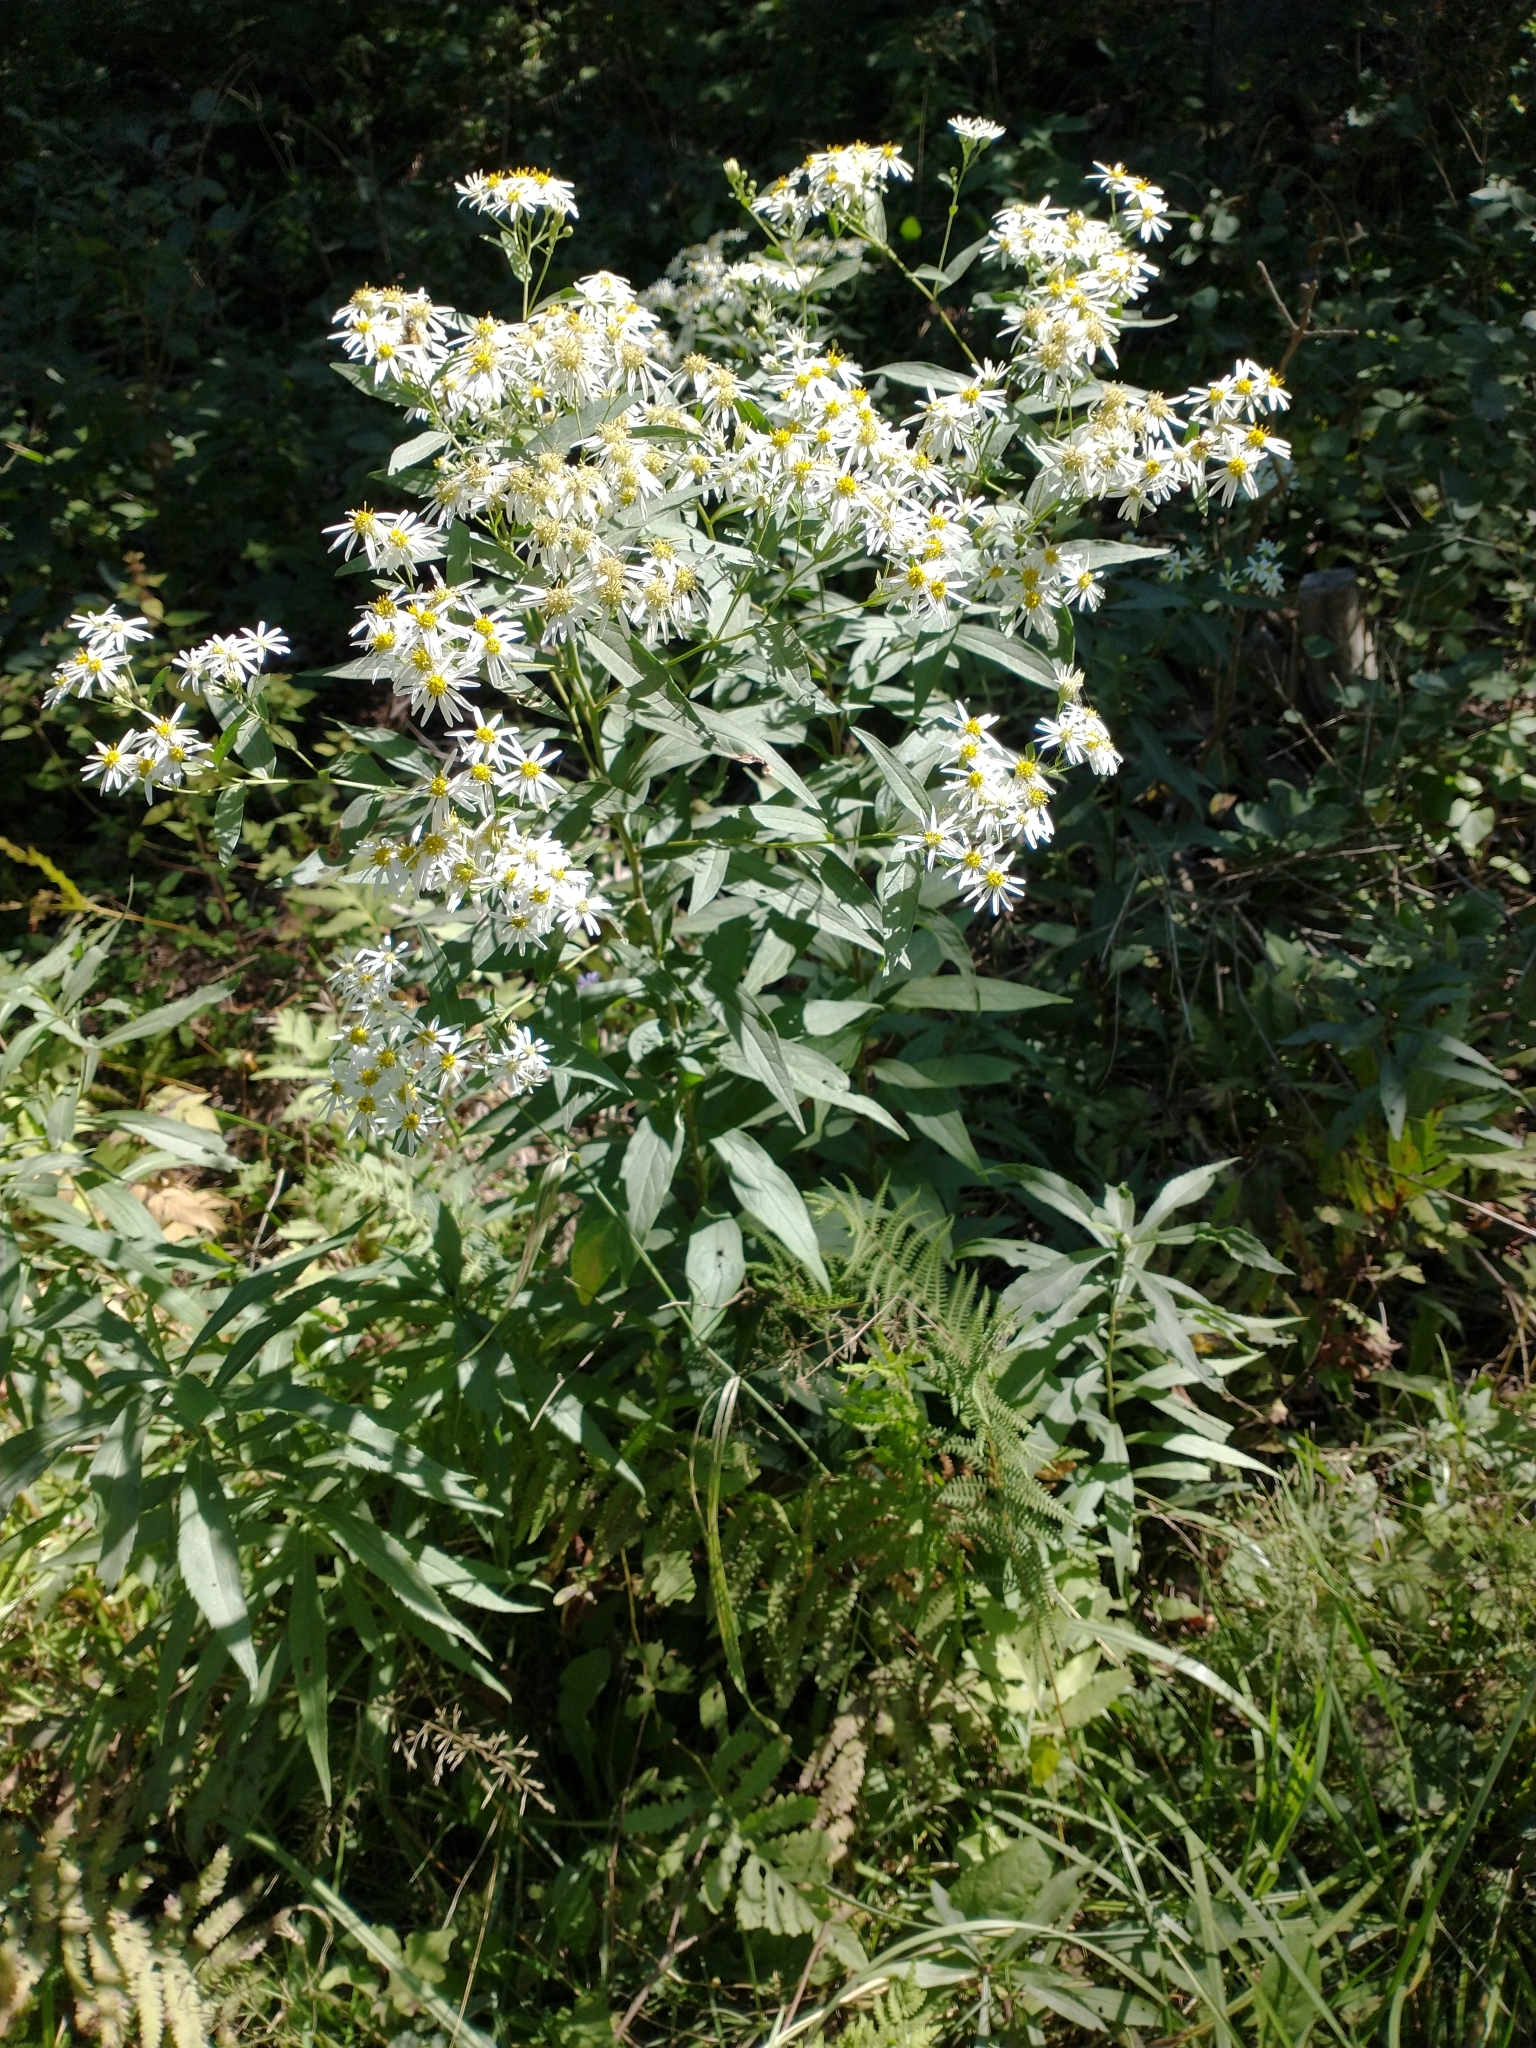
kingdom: Plantae
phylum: Tracheophyta
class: Magnoliopsida
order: Asterales
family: Asteraceae
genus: Doellingeria
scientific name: Doellingeria umbellata
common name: Flat-top white aster
